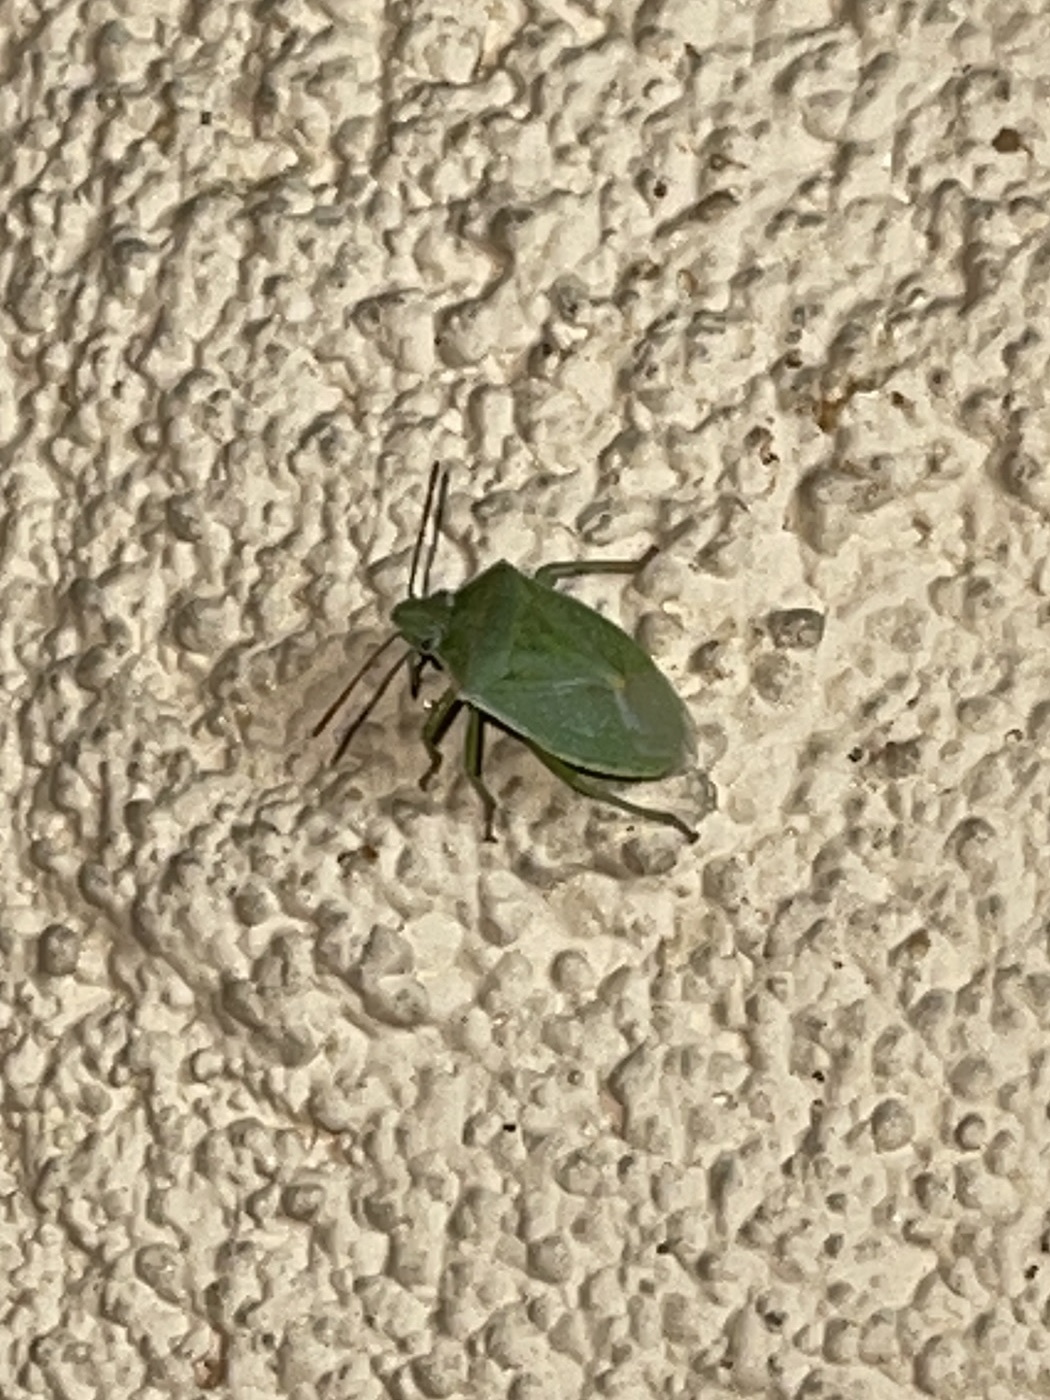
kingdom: Animalia
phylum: Arthropoda
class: Insecta
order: Hemiptera
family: Pentatomidae
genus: Thyanta
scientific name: Thyanta accerra
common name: Stink bug
